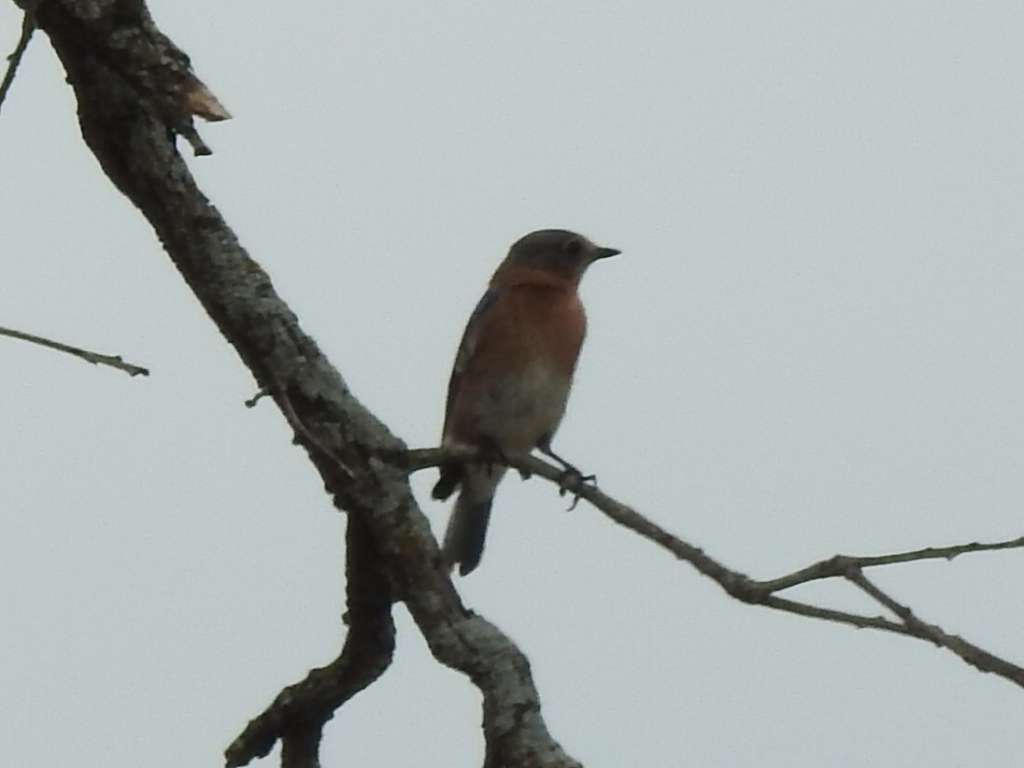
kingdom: Animalia
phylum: Chordata
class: Aves
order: Passeriformes
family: Turdidae
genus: Sialia
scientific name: Sialia sialis
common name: Eastern bluebird
